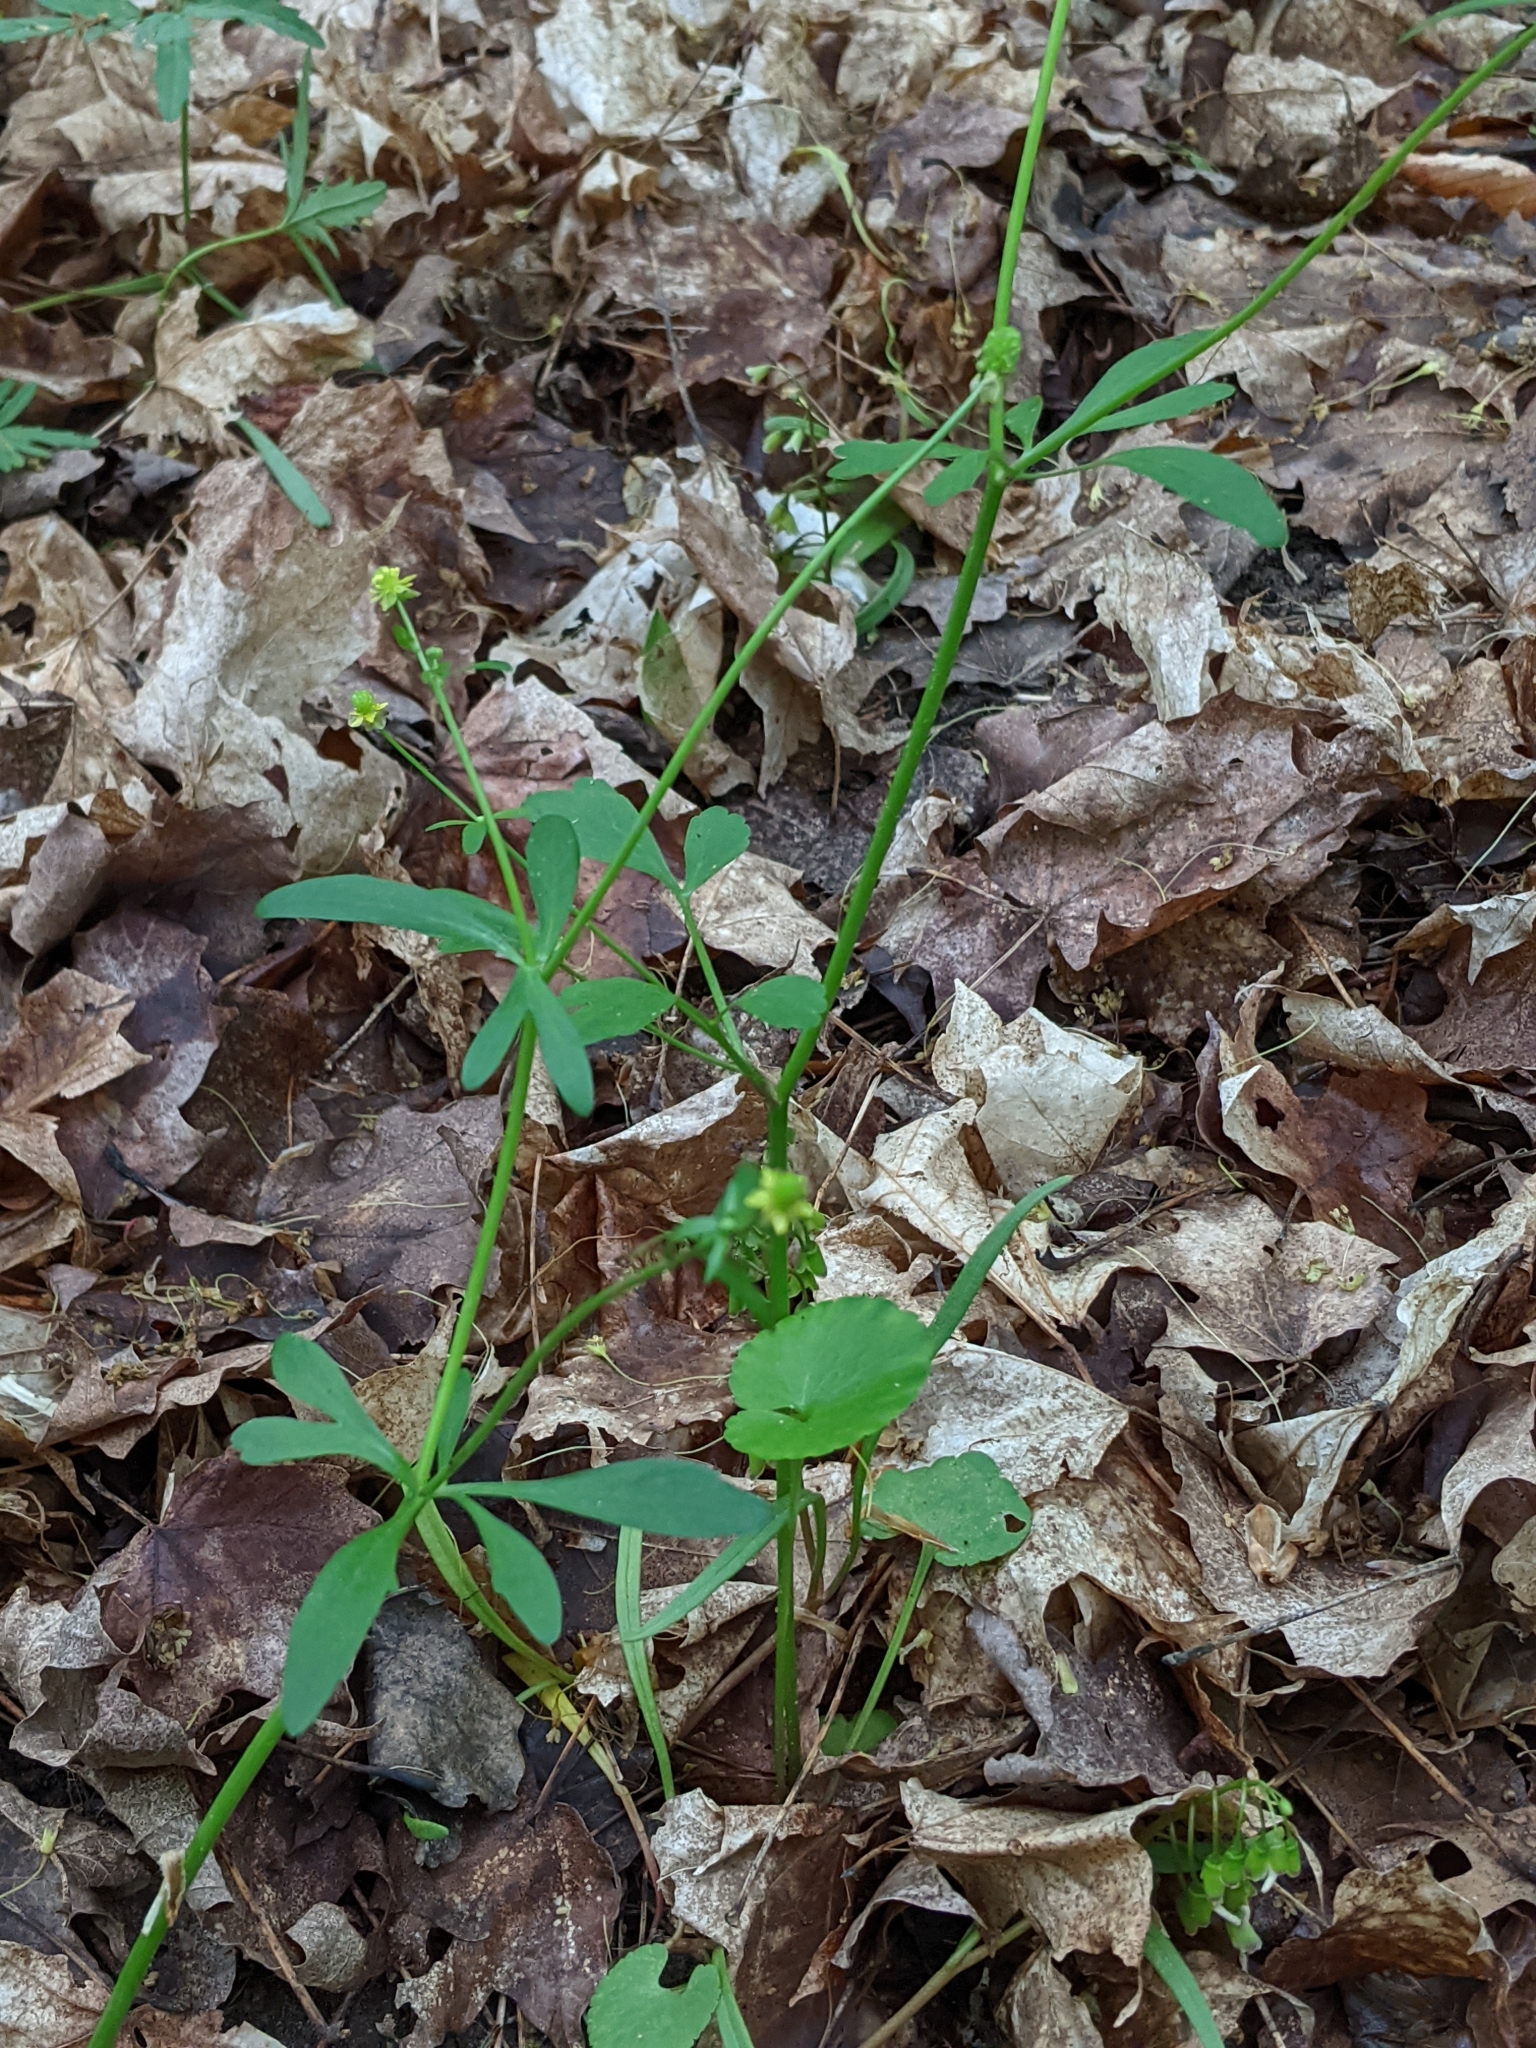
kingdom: Plantae
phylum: Tracheophyta
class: Magnoliopsida
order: Ranunculales
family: Ranunculaceae
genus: Ranunculus
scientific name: Ranunculus abortivus
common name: Early wood buttercup
